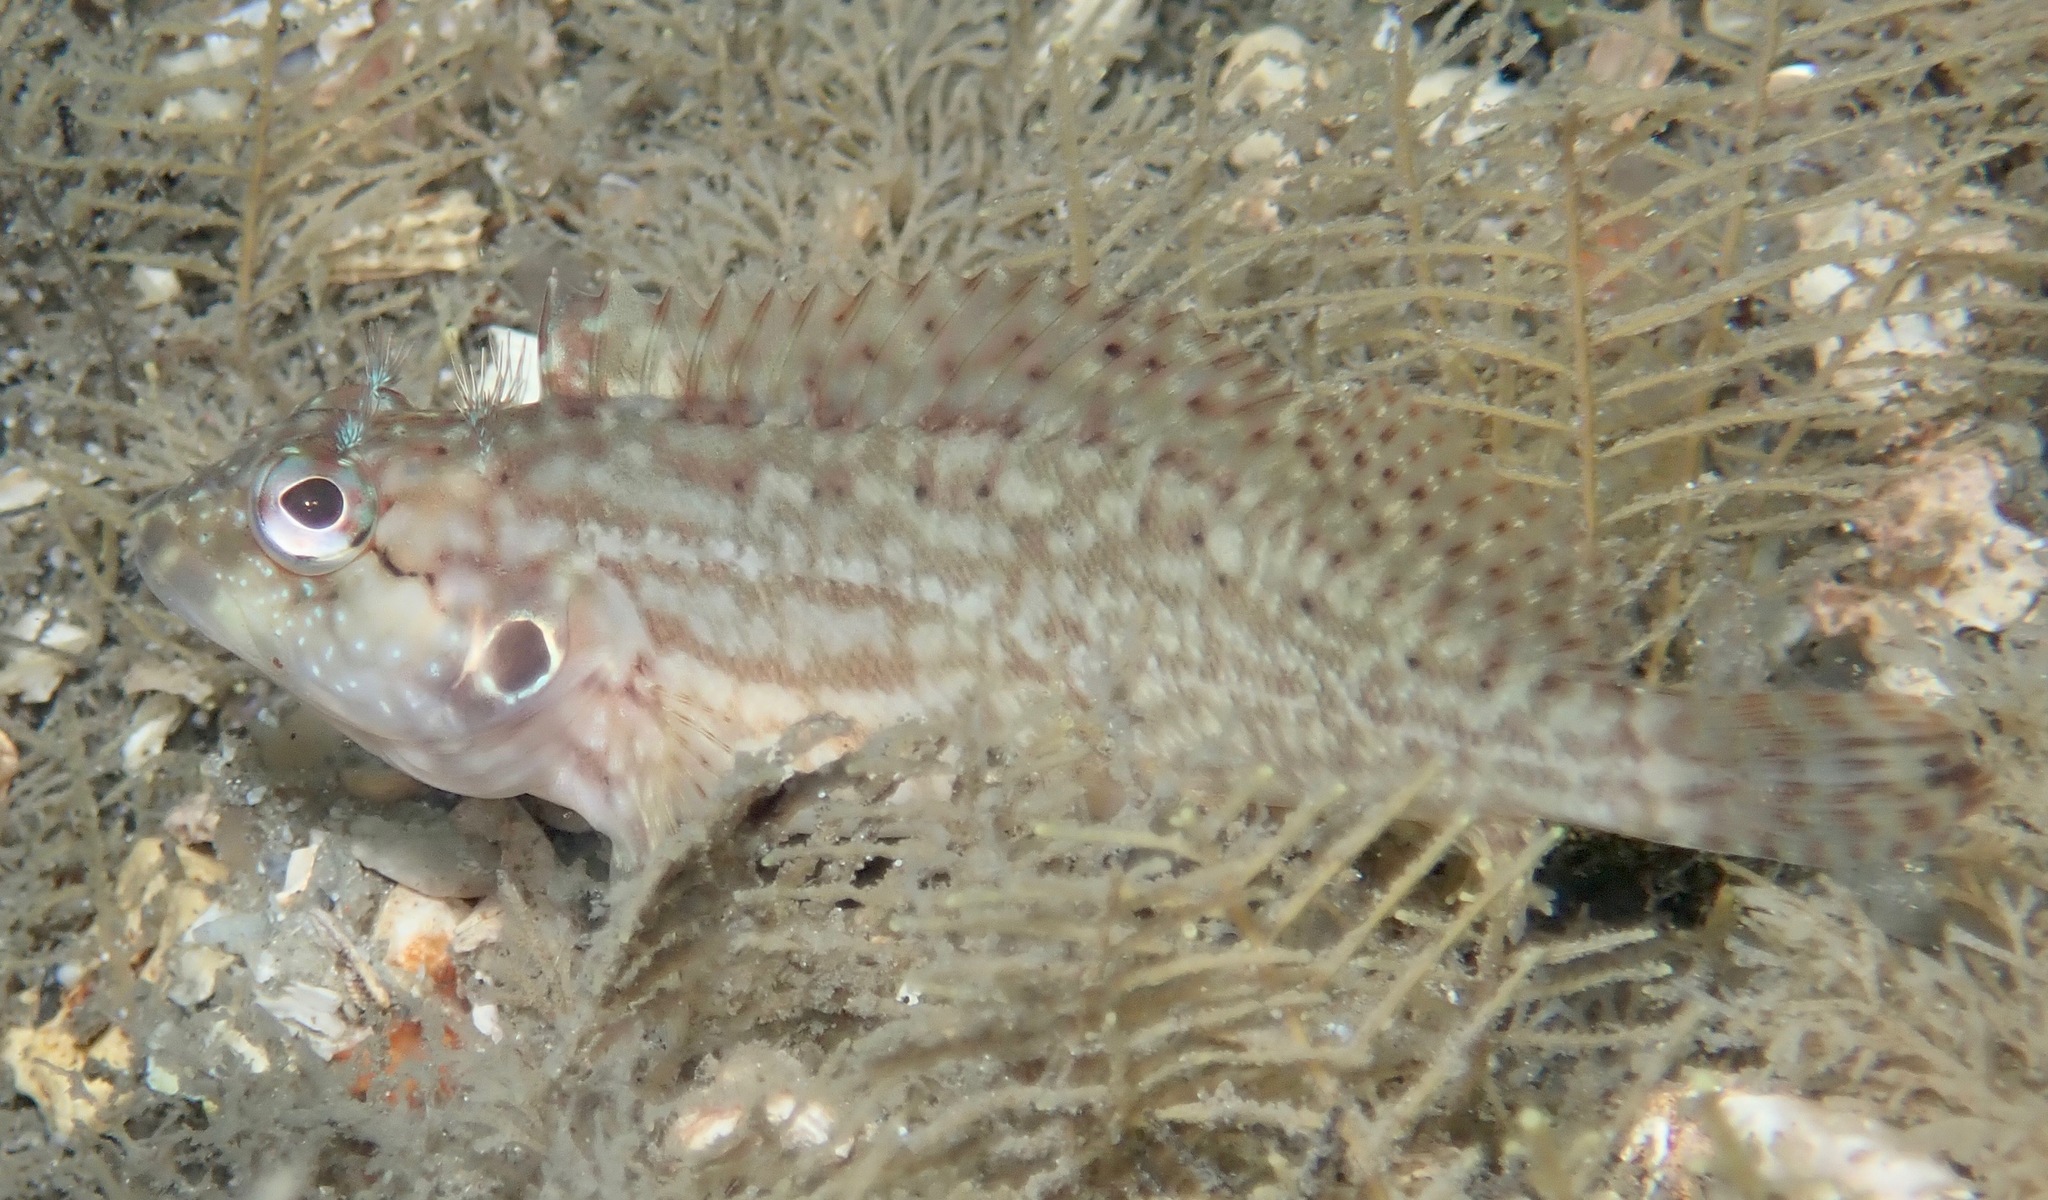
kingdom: Animalia
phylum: Chordata
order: Perciformes
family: Labrisomidae
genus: Labrisomus
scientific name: Labrisomus conditus
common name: Masquerader hairy blenny
